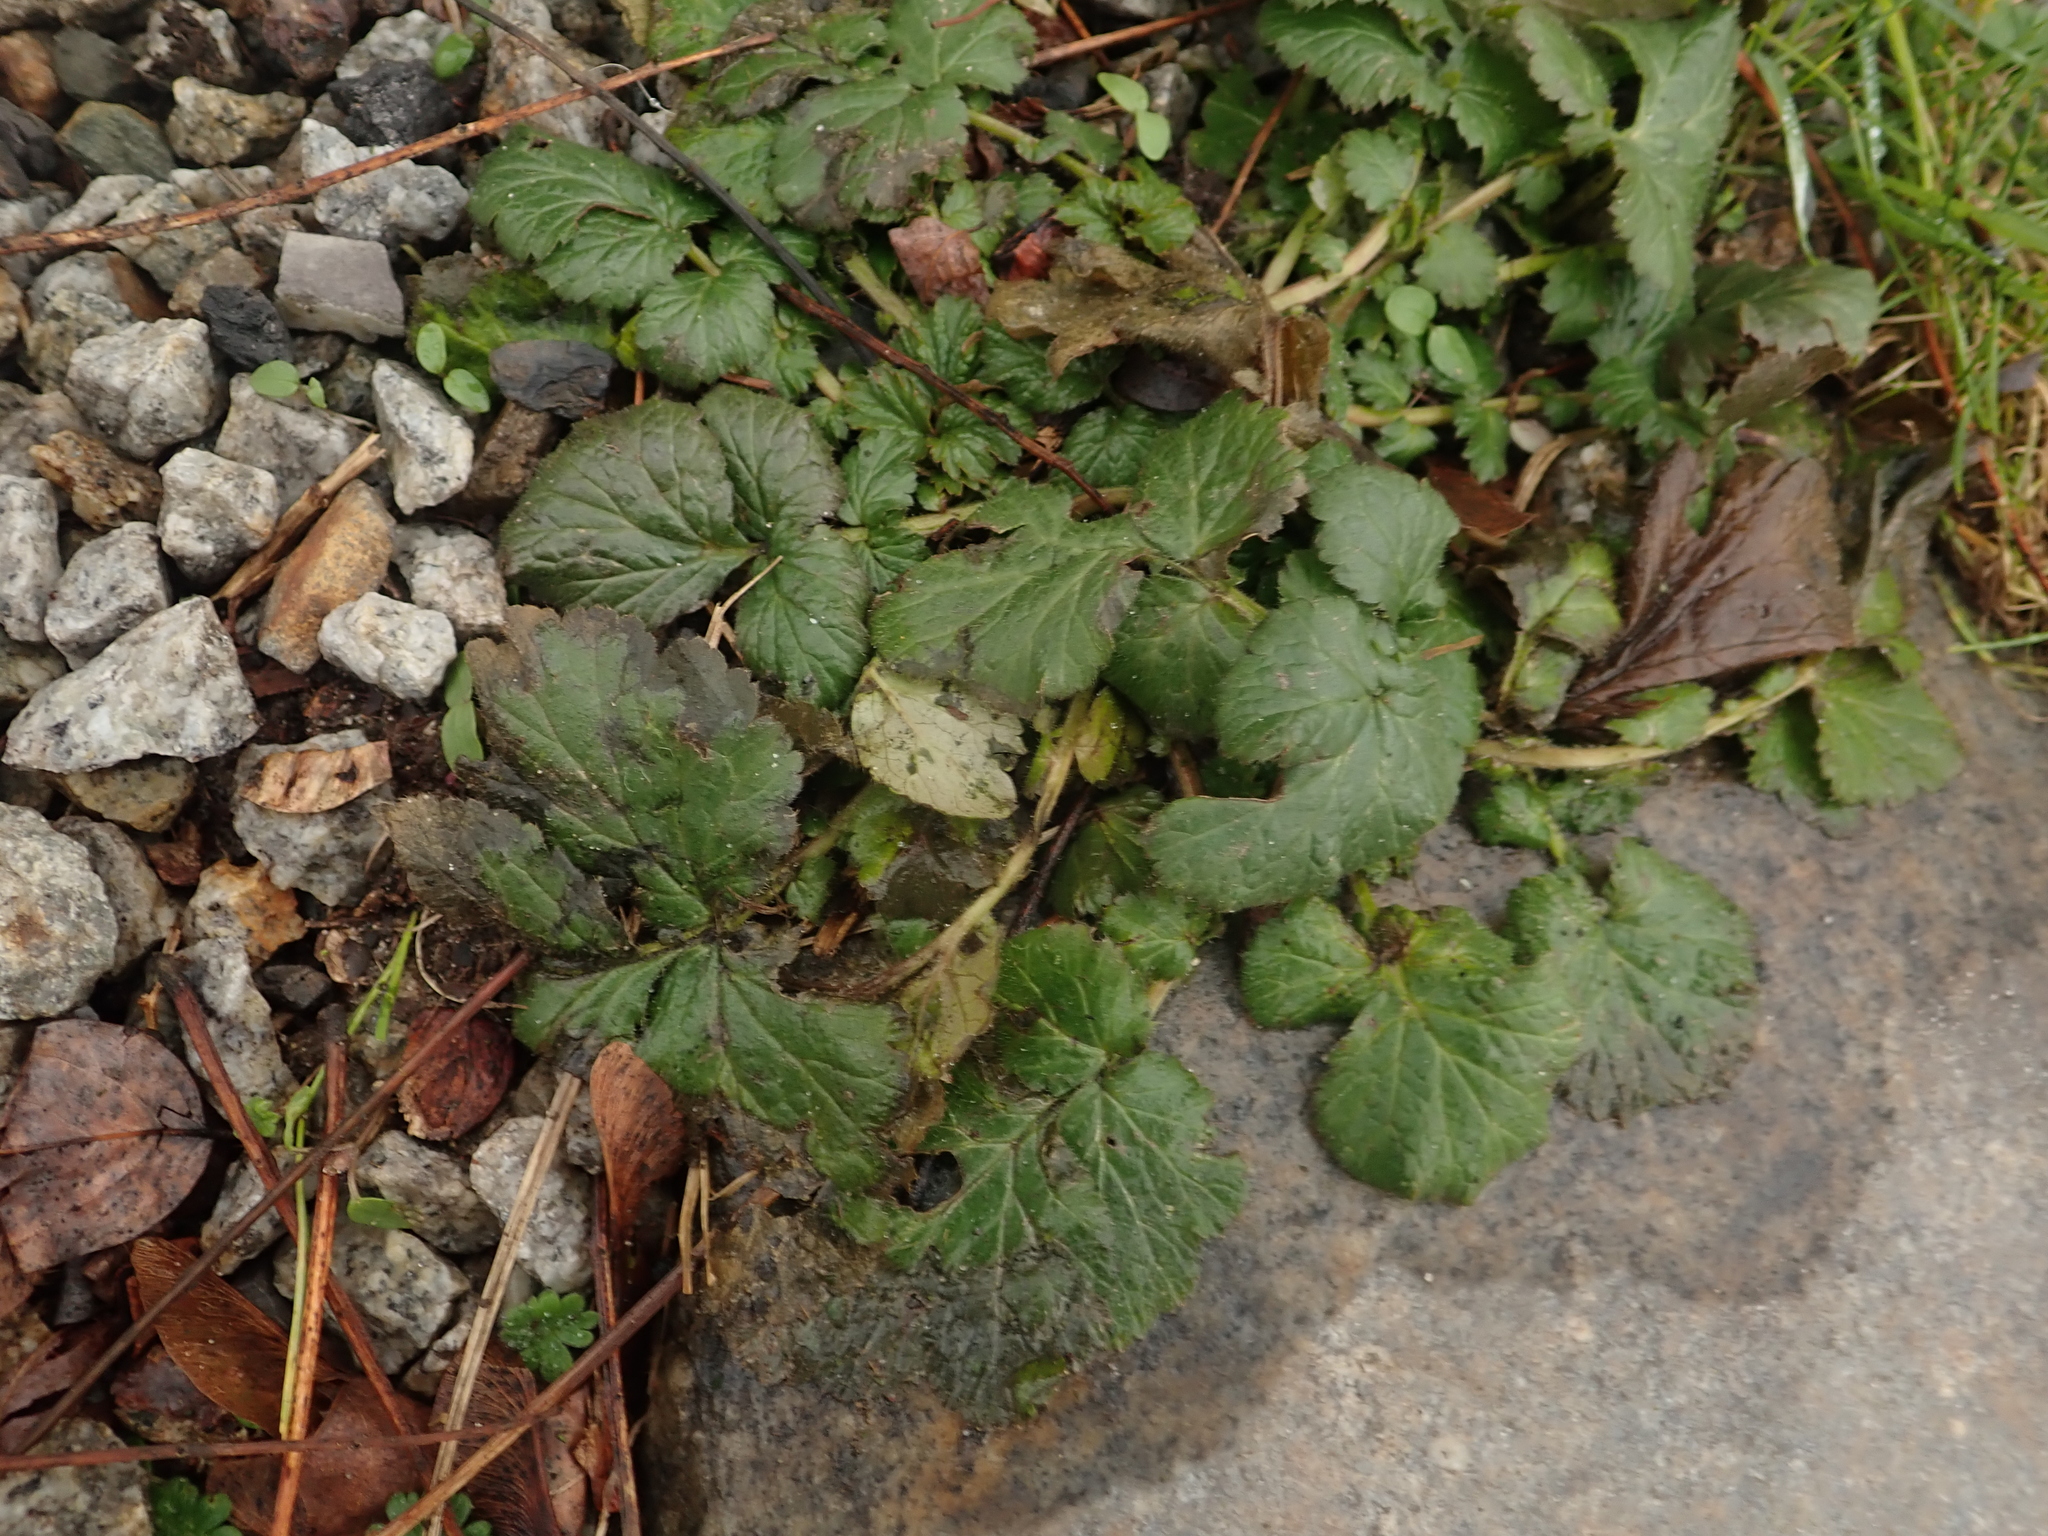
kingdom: Plantae
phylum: Tracheophyta
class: Magnoliopsida
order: Rosales
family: Rosaceae
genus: Geum
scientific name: Geum urbanum
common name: Wood avens
